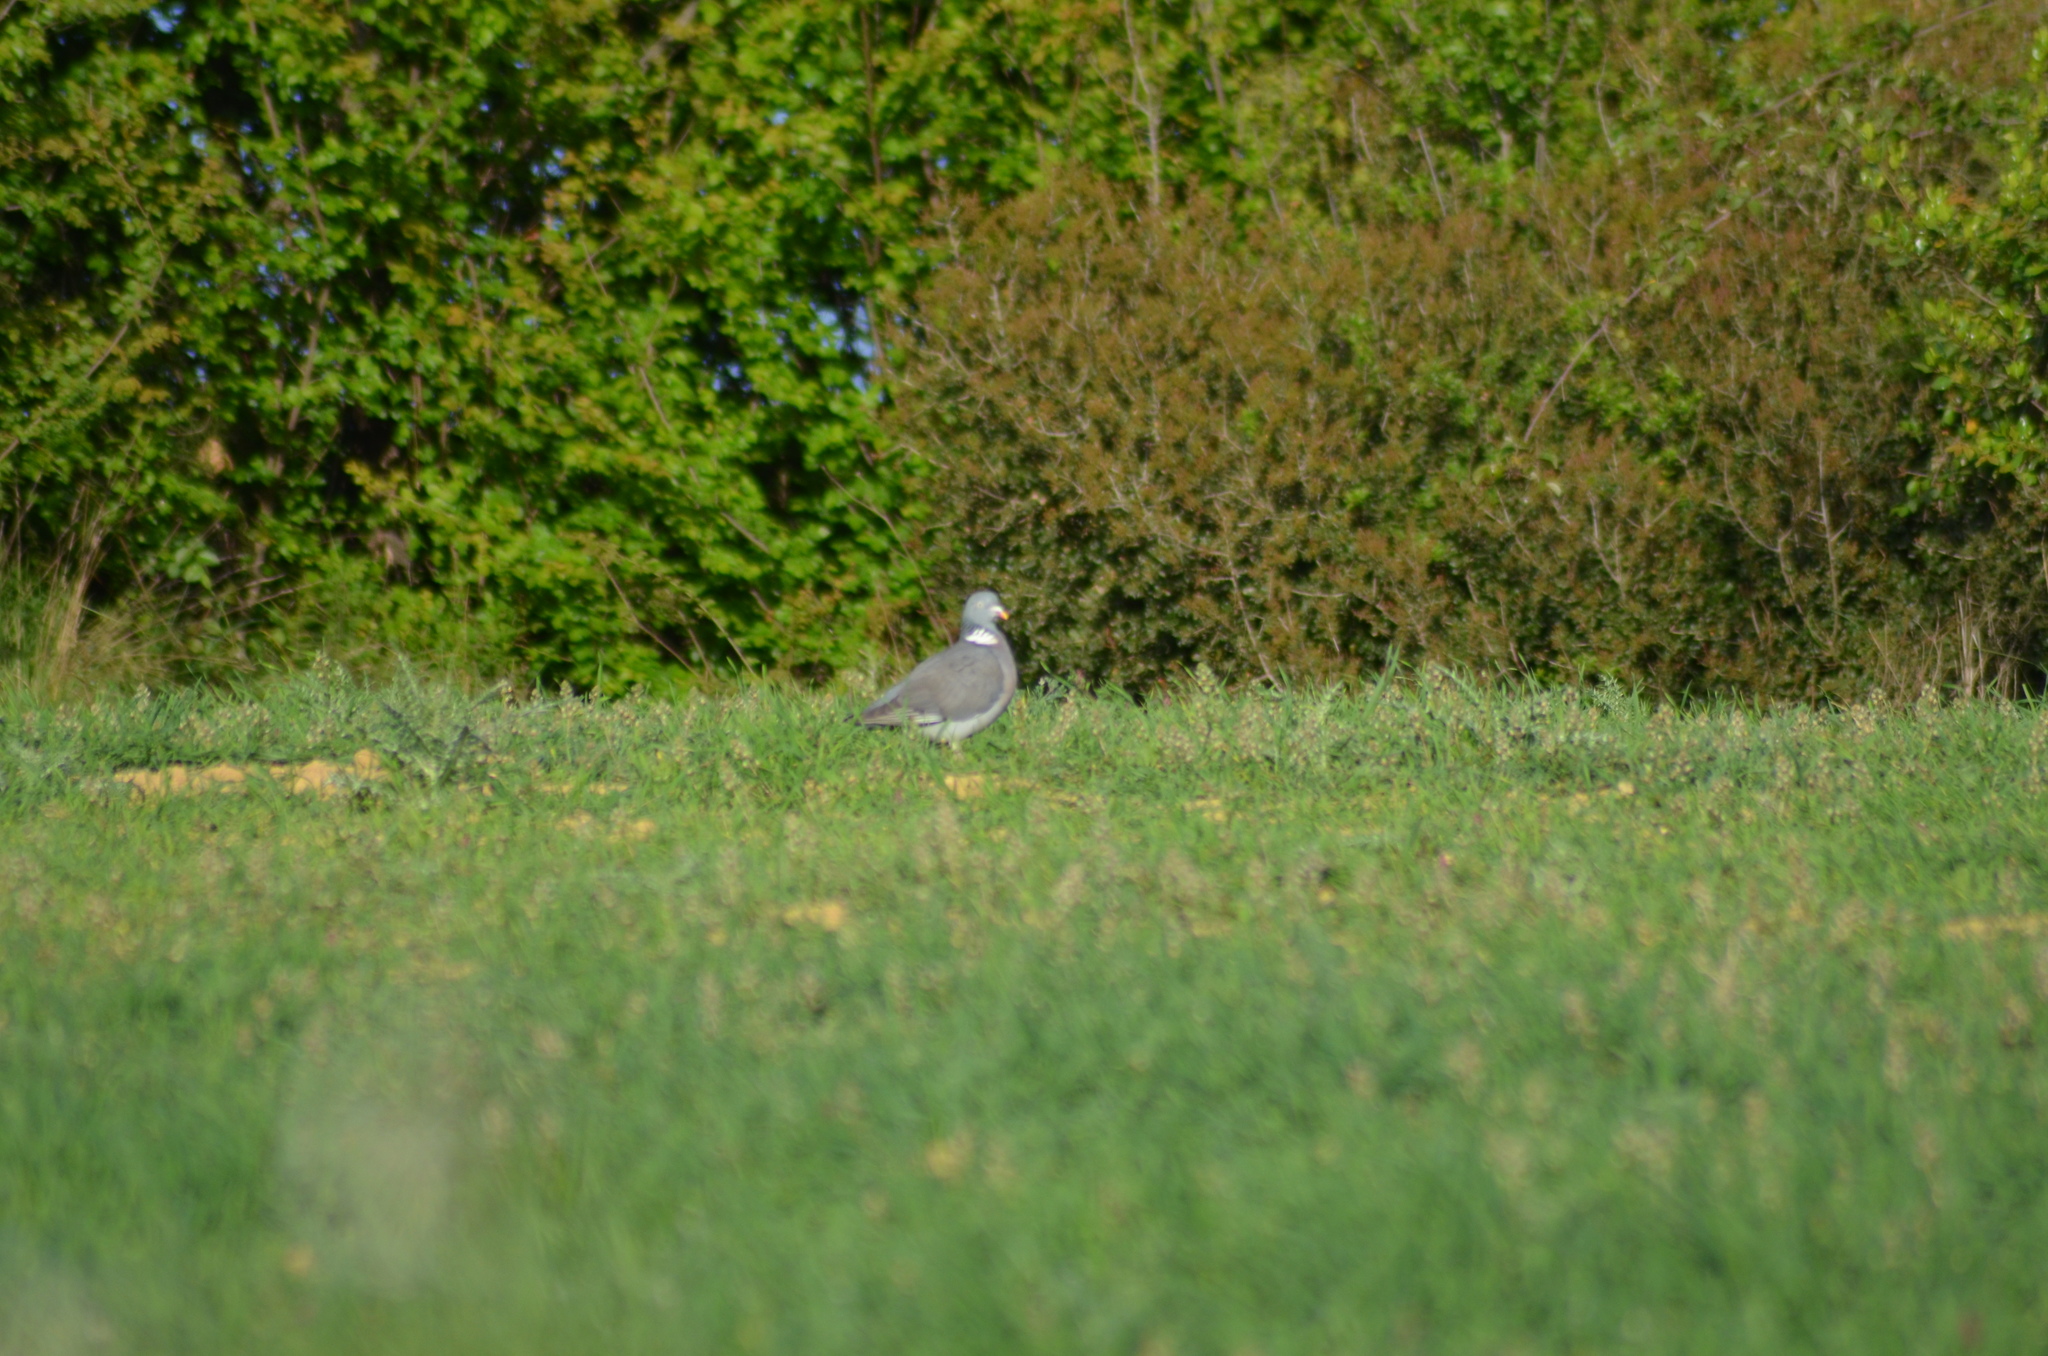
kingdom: Animalia
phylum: Chordata
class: Aves
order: Columbiformes
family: Columbidae
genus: Columba
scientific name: Columba palumbus
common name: Common wood pigeon
